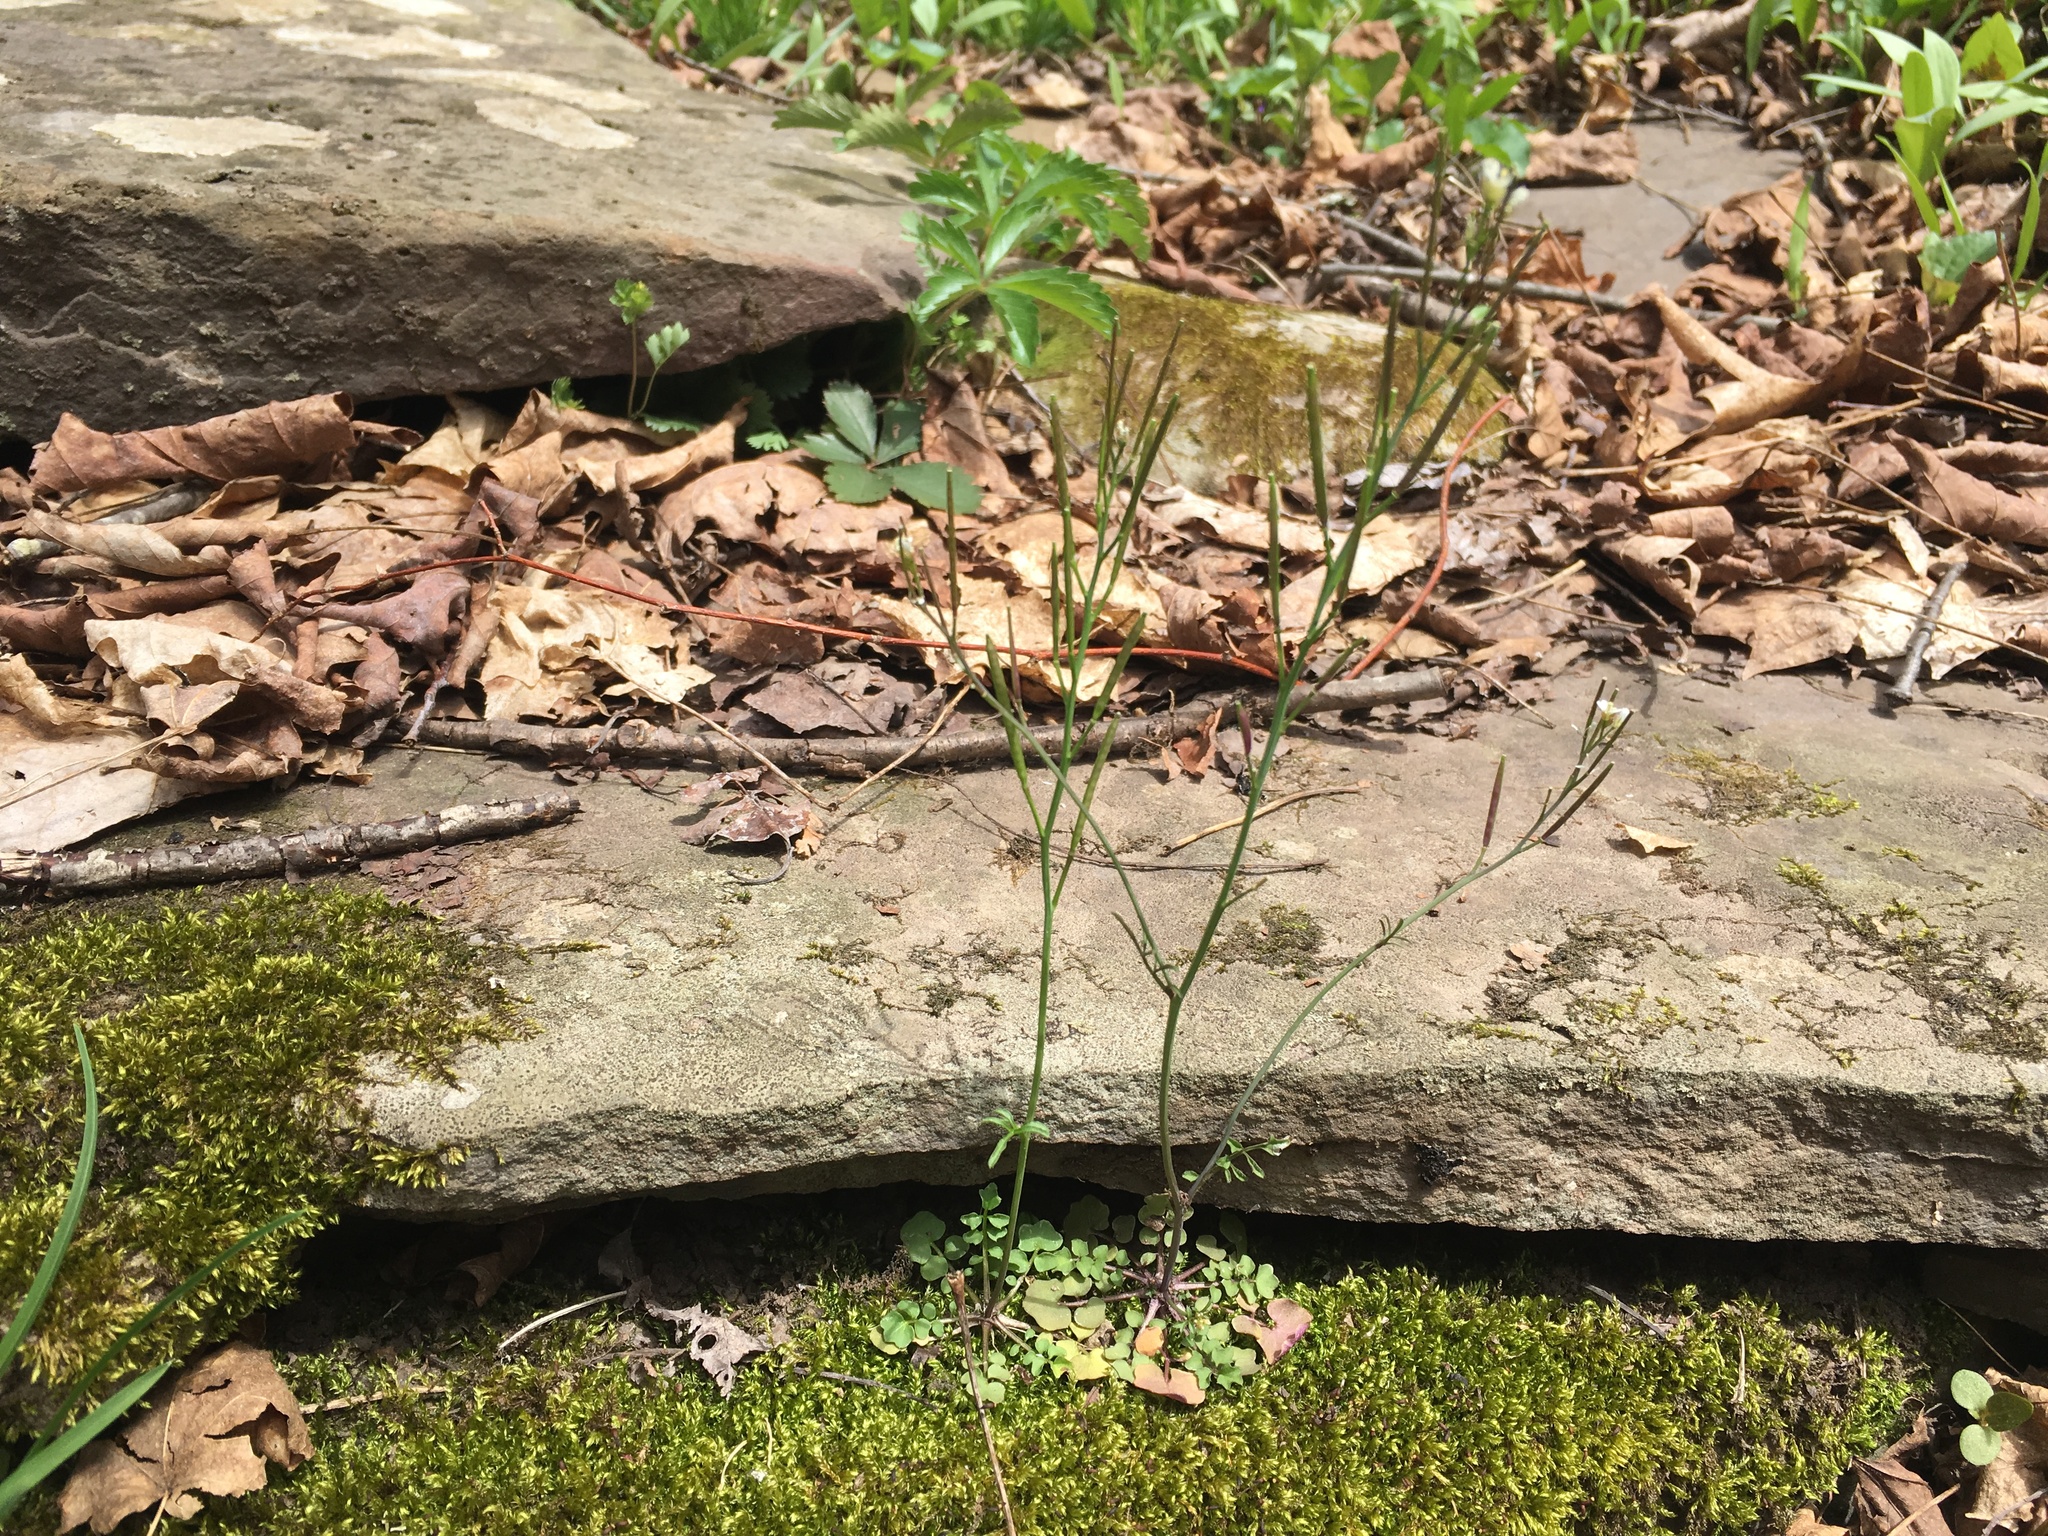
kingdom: Plantae
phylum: Tracheophyta
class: Magnoliopsida
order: Brassicales
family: Brassicaceae
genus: Cardamine
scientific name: Cardamine hirsuta
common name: Hairy bittercress
